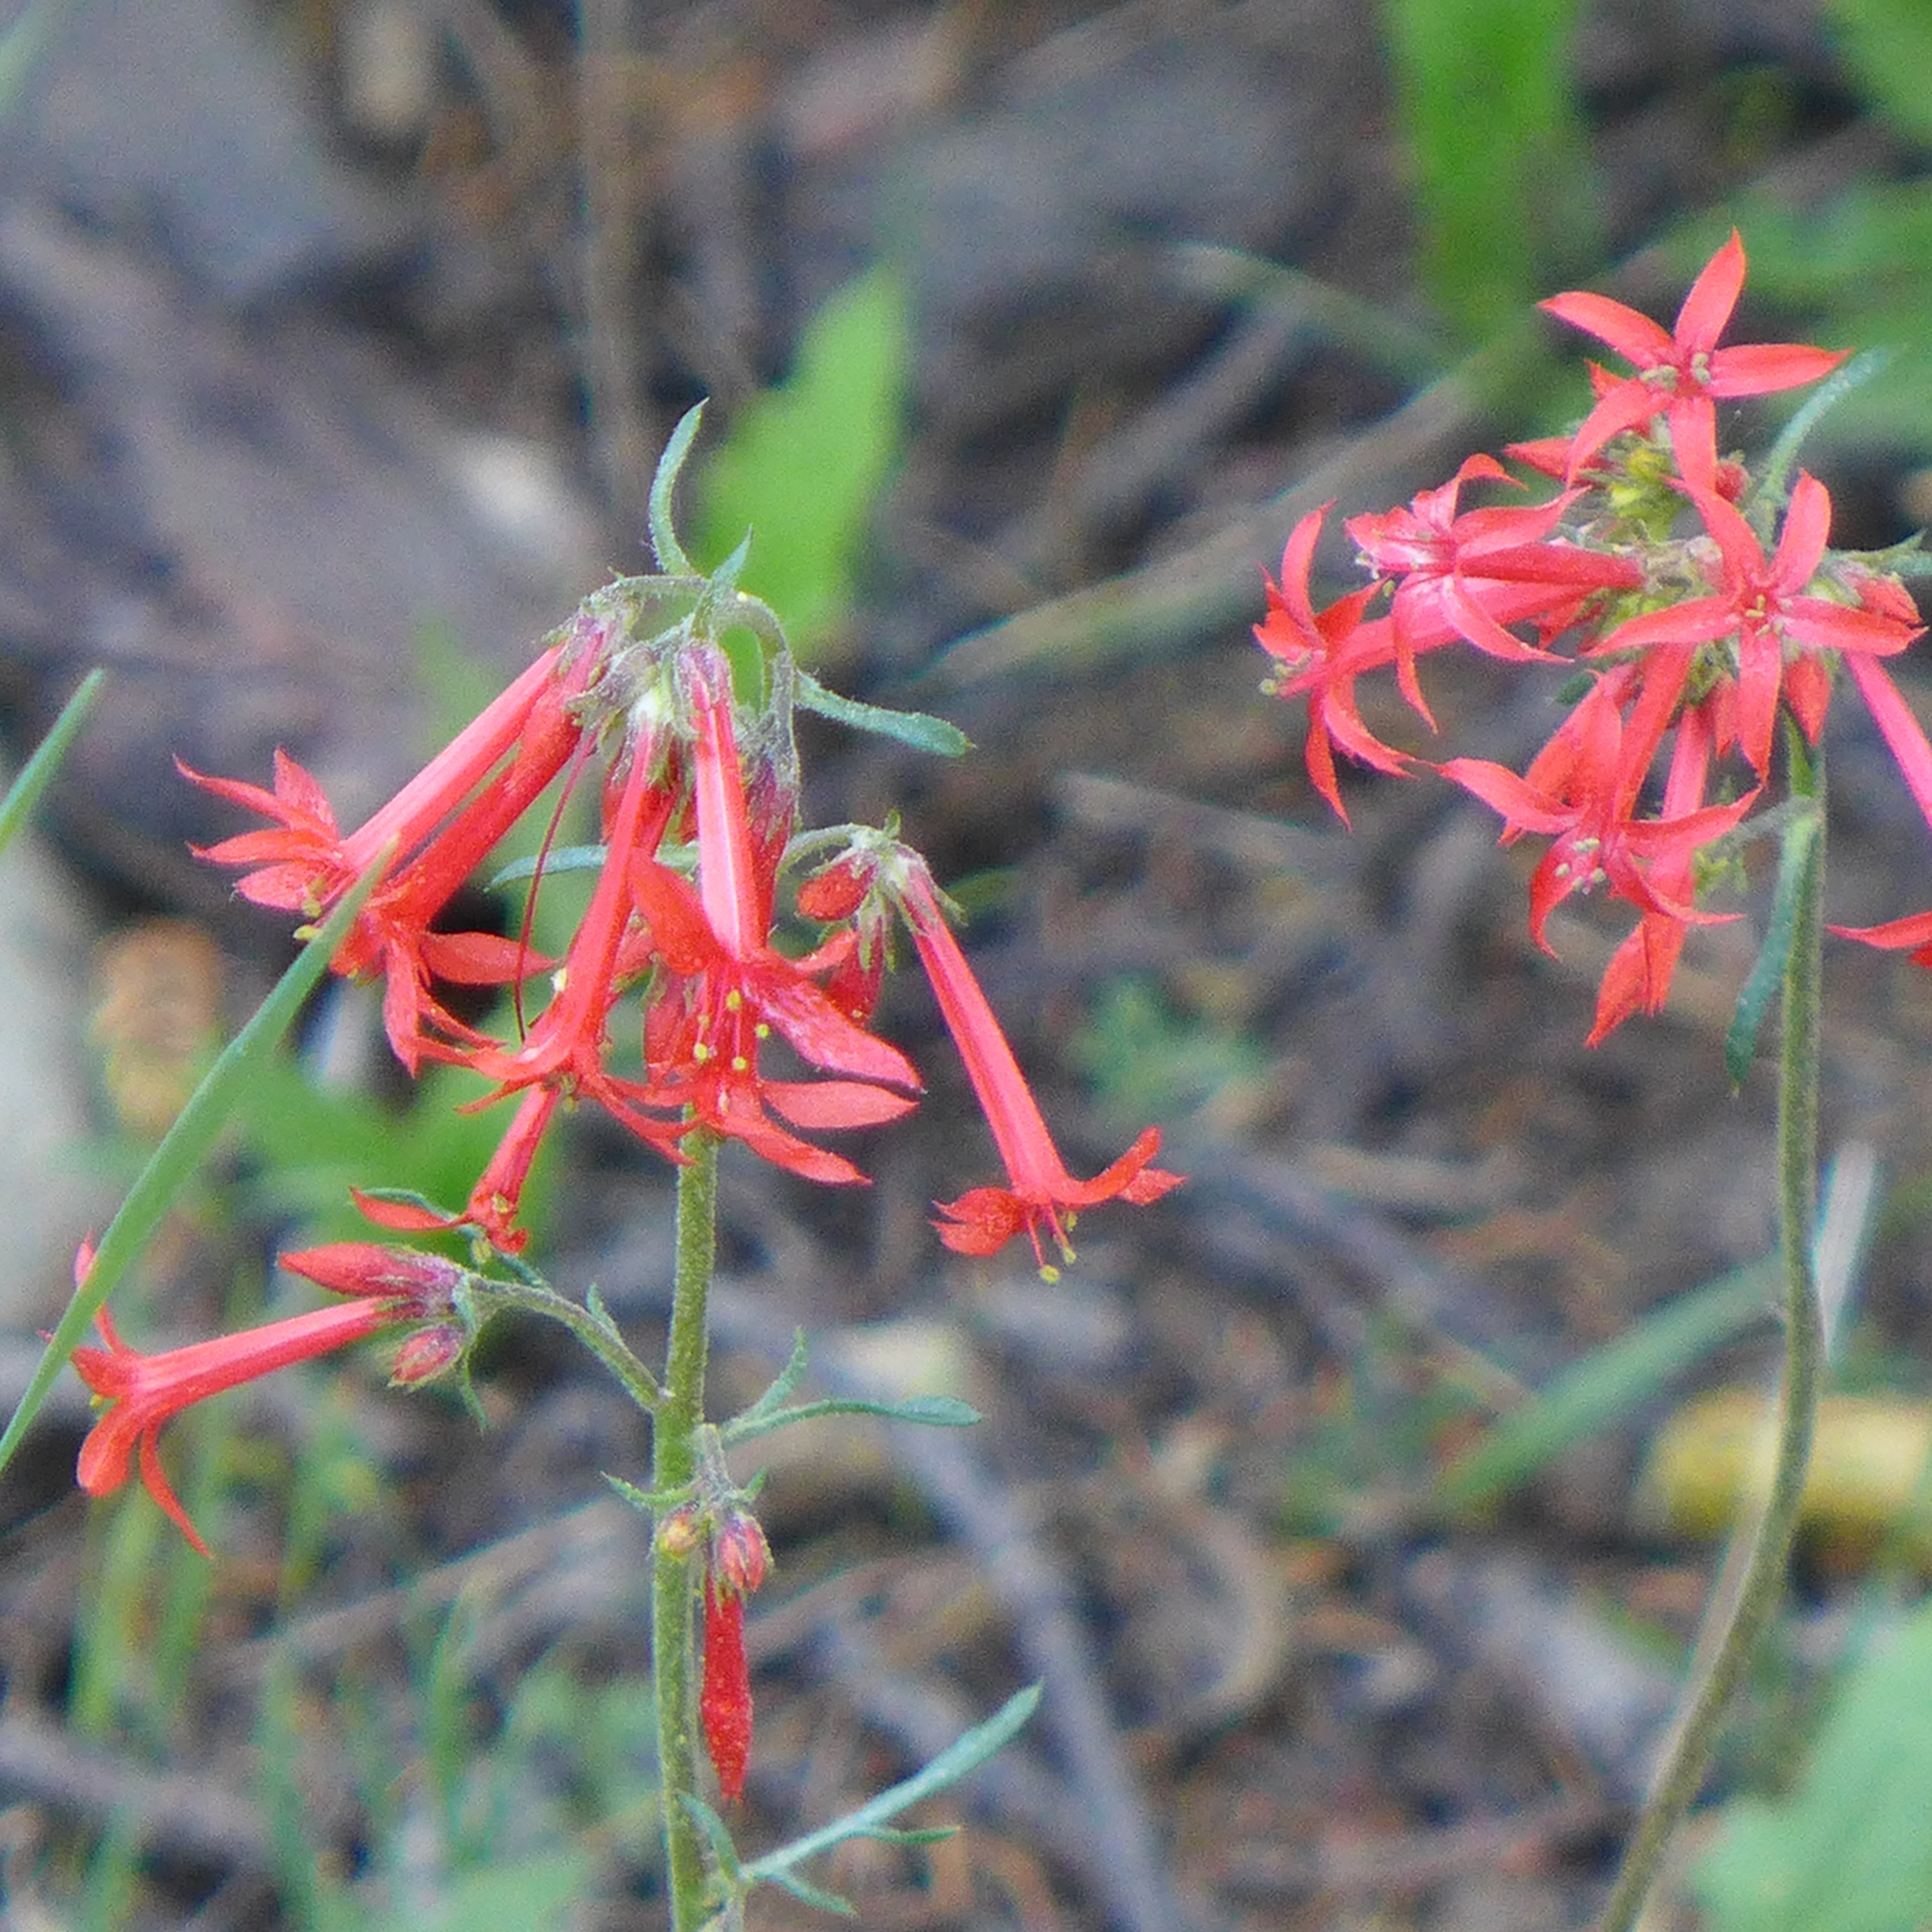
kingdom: Plantae
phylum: Tracheophyta
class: Magnoliopsida
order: Ericales
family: Polemoniaceae
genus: Ipomopsis
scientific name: Ipomopsis aggregata
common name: Scarlet gilia
